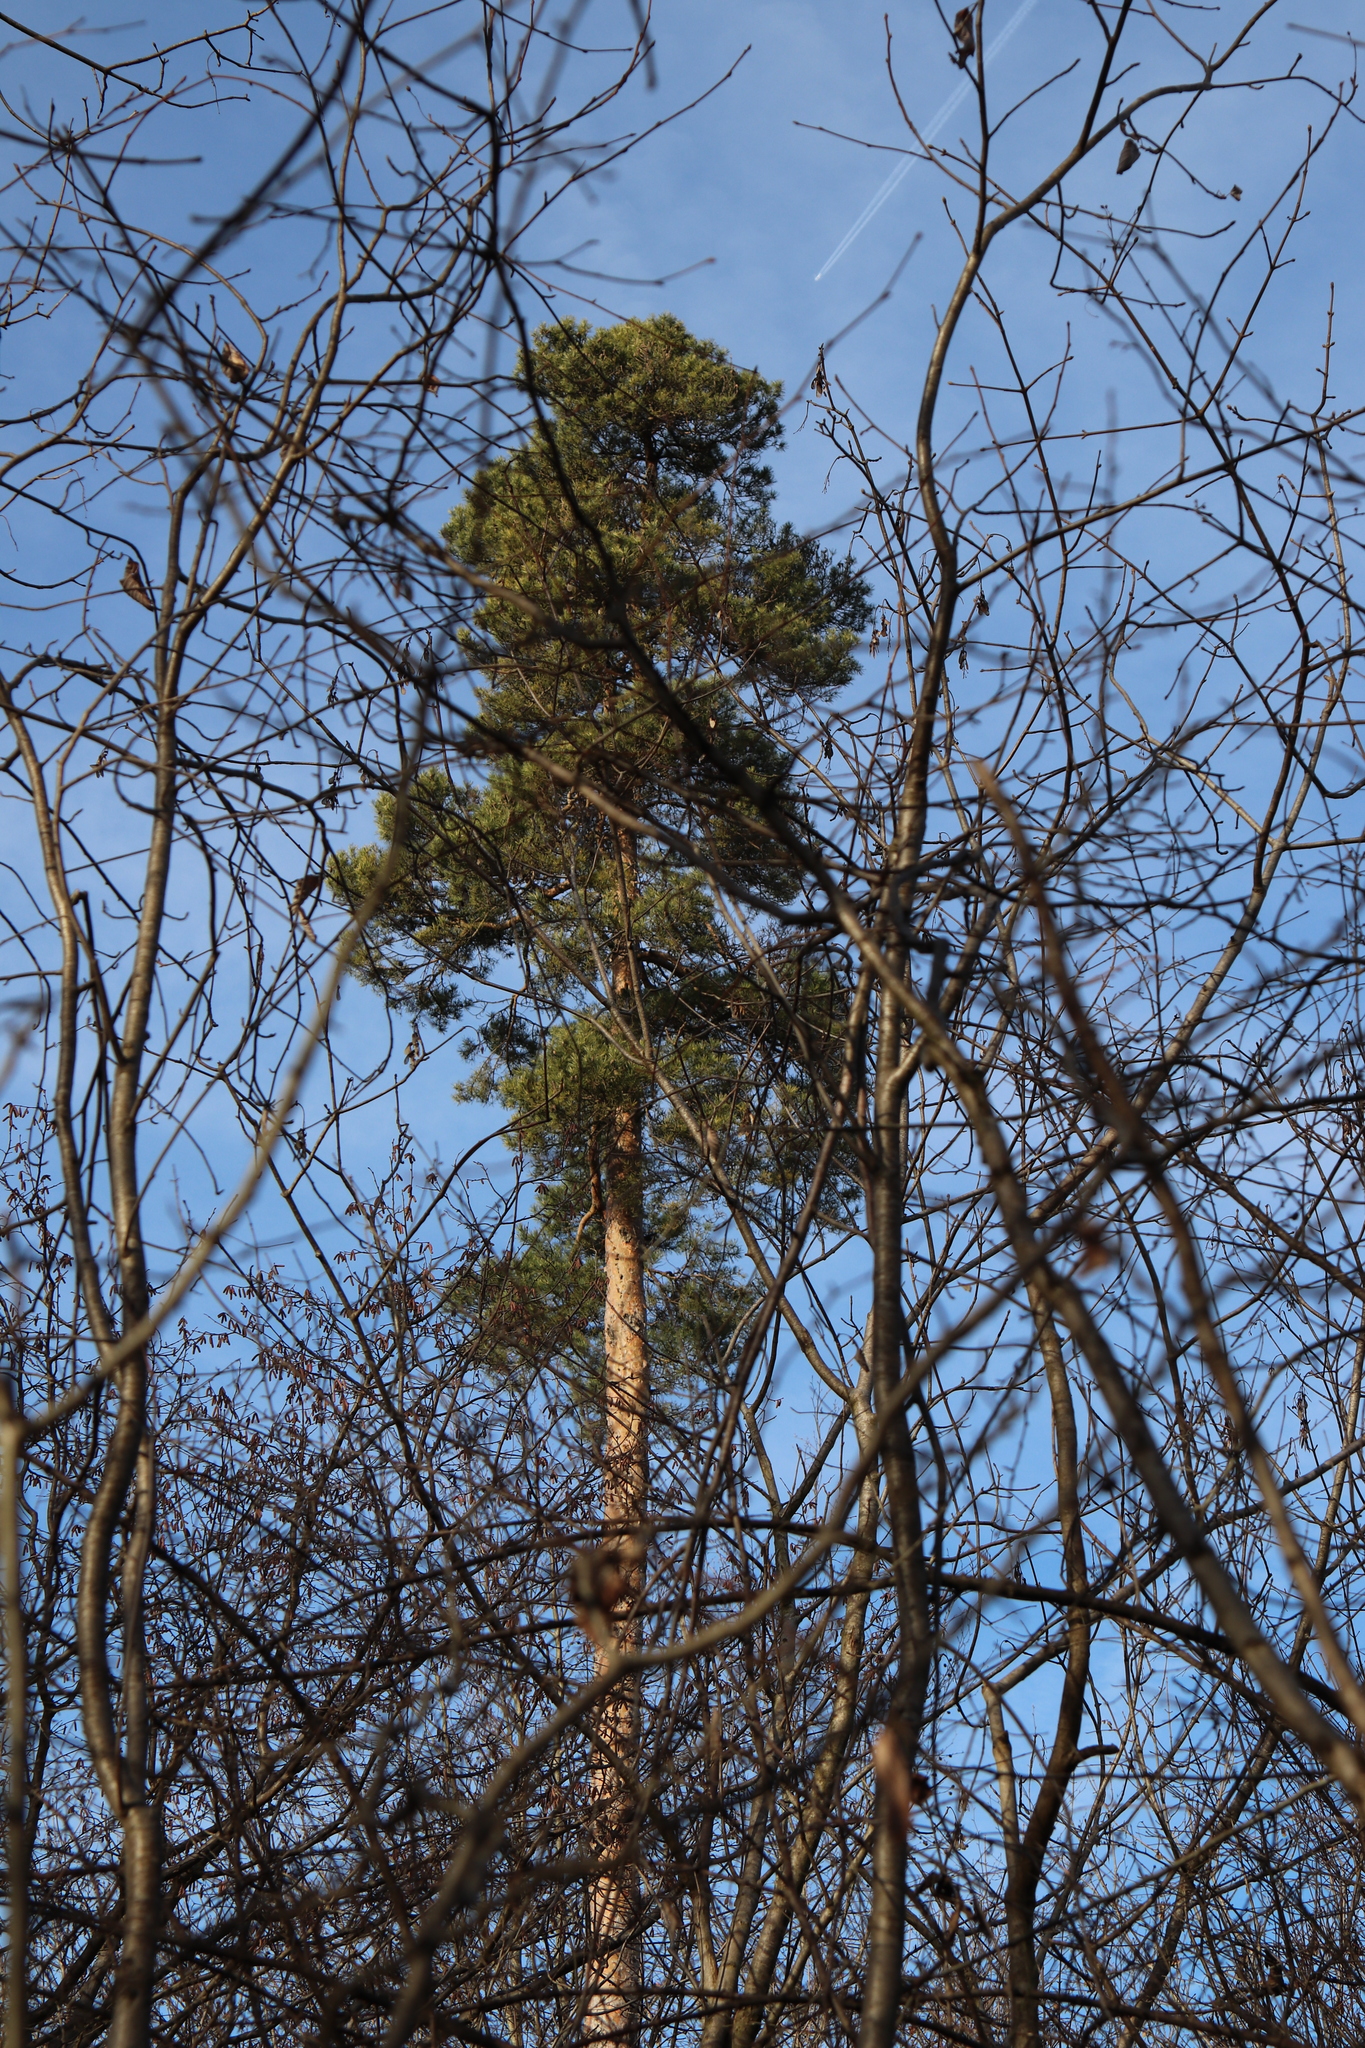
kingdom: Plantae
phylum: Tracheophyta
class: Pinopsida
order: Pinales
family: Pinaceae
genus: Pinus
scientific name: Pinus sylvestris
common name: Scots pine
